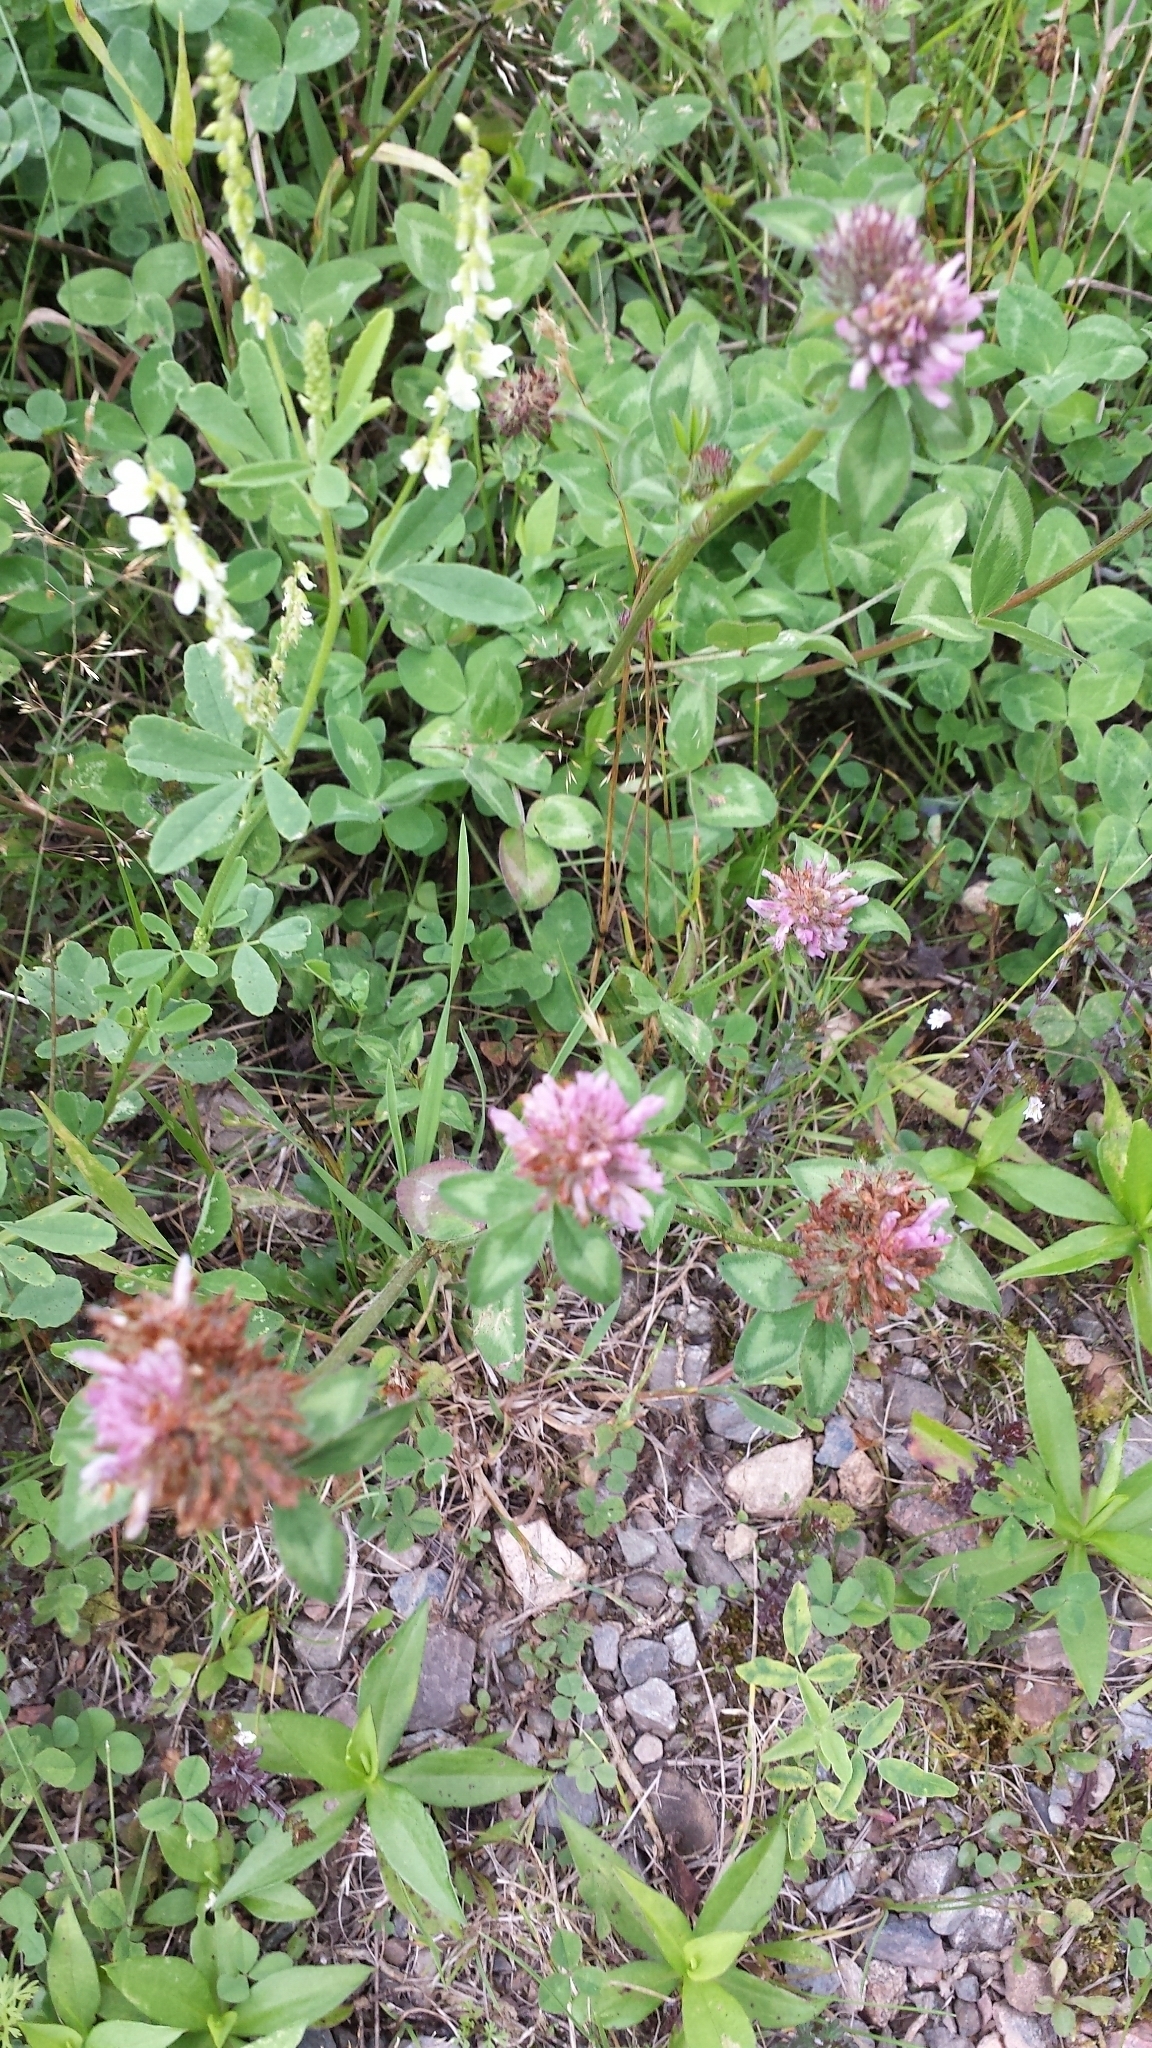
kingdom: Plantae
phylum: Tracheophyta
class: Magnoliopsida
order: Fabales
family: Fabaceae
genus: Trifolium
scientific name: Trifolium pratense
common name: Red clover
